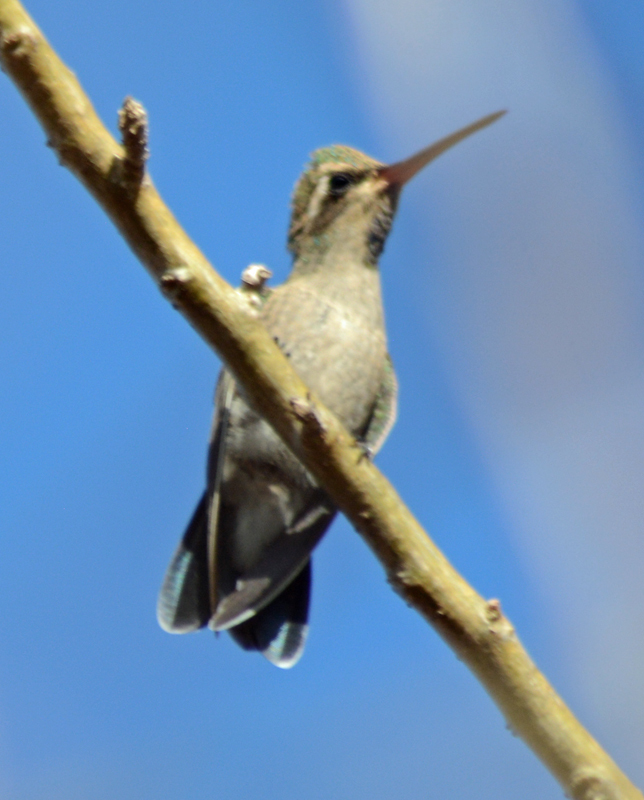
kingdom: Animalia
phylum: Chordata
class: Aves
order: Apodiformes
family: Trochilidae
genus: Cynanthus
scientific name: Cynanthus latirostris
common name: Broad-billed hummingbird
